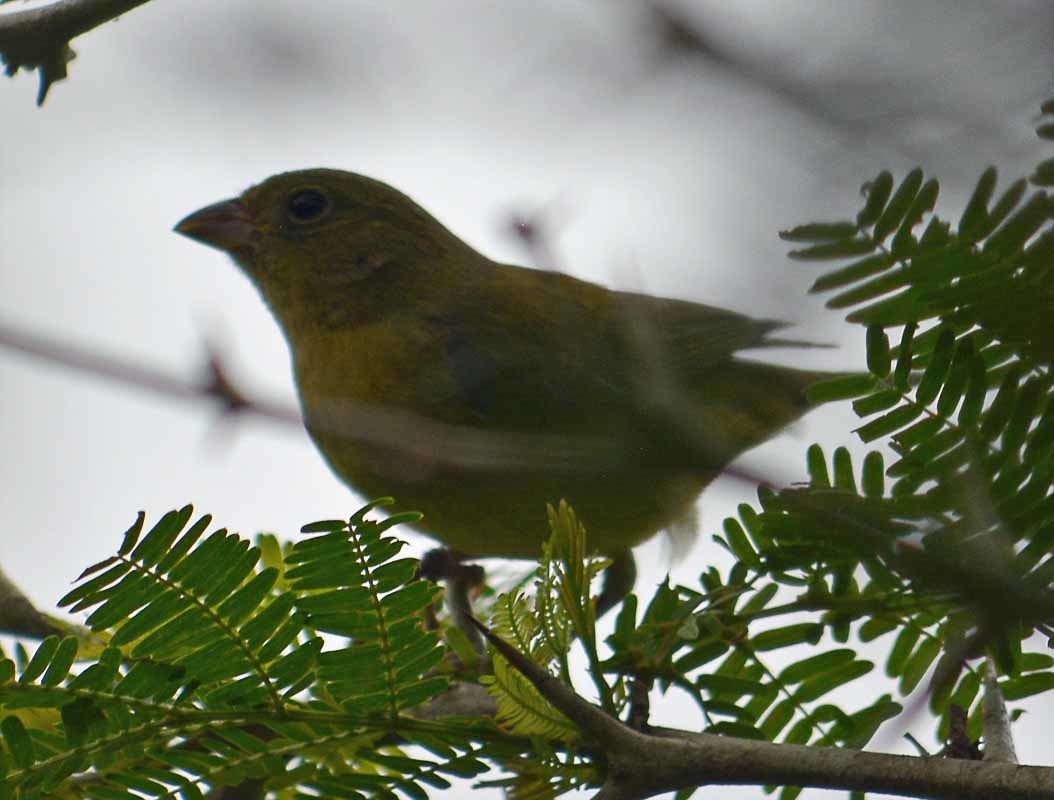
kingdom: Animalia
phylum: Chordata
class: Aves
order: Passeriformes
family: Cardinalidae
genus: Passerina
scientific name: Passerina ciris
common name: Painted bunting
